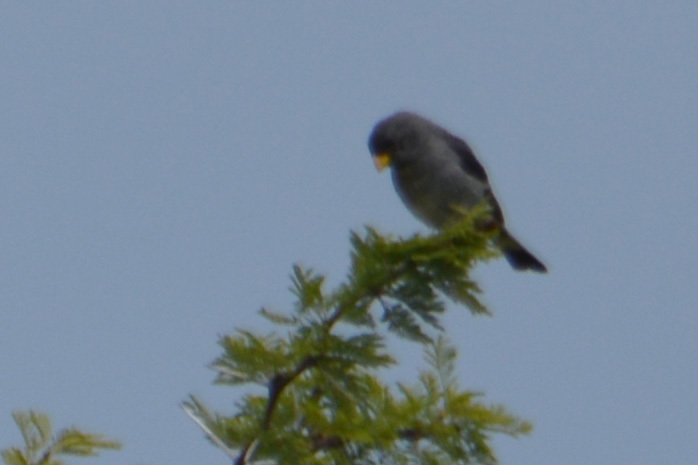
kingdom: Animalia
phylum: Chordata
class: Aves
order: Passeriformes
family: Thraupidae
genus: Catamenia
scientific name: Catamenia analis
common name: Band-tailed seedeater
